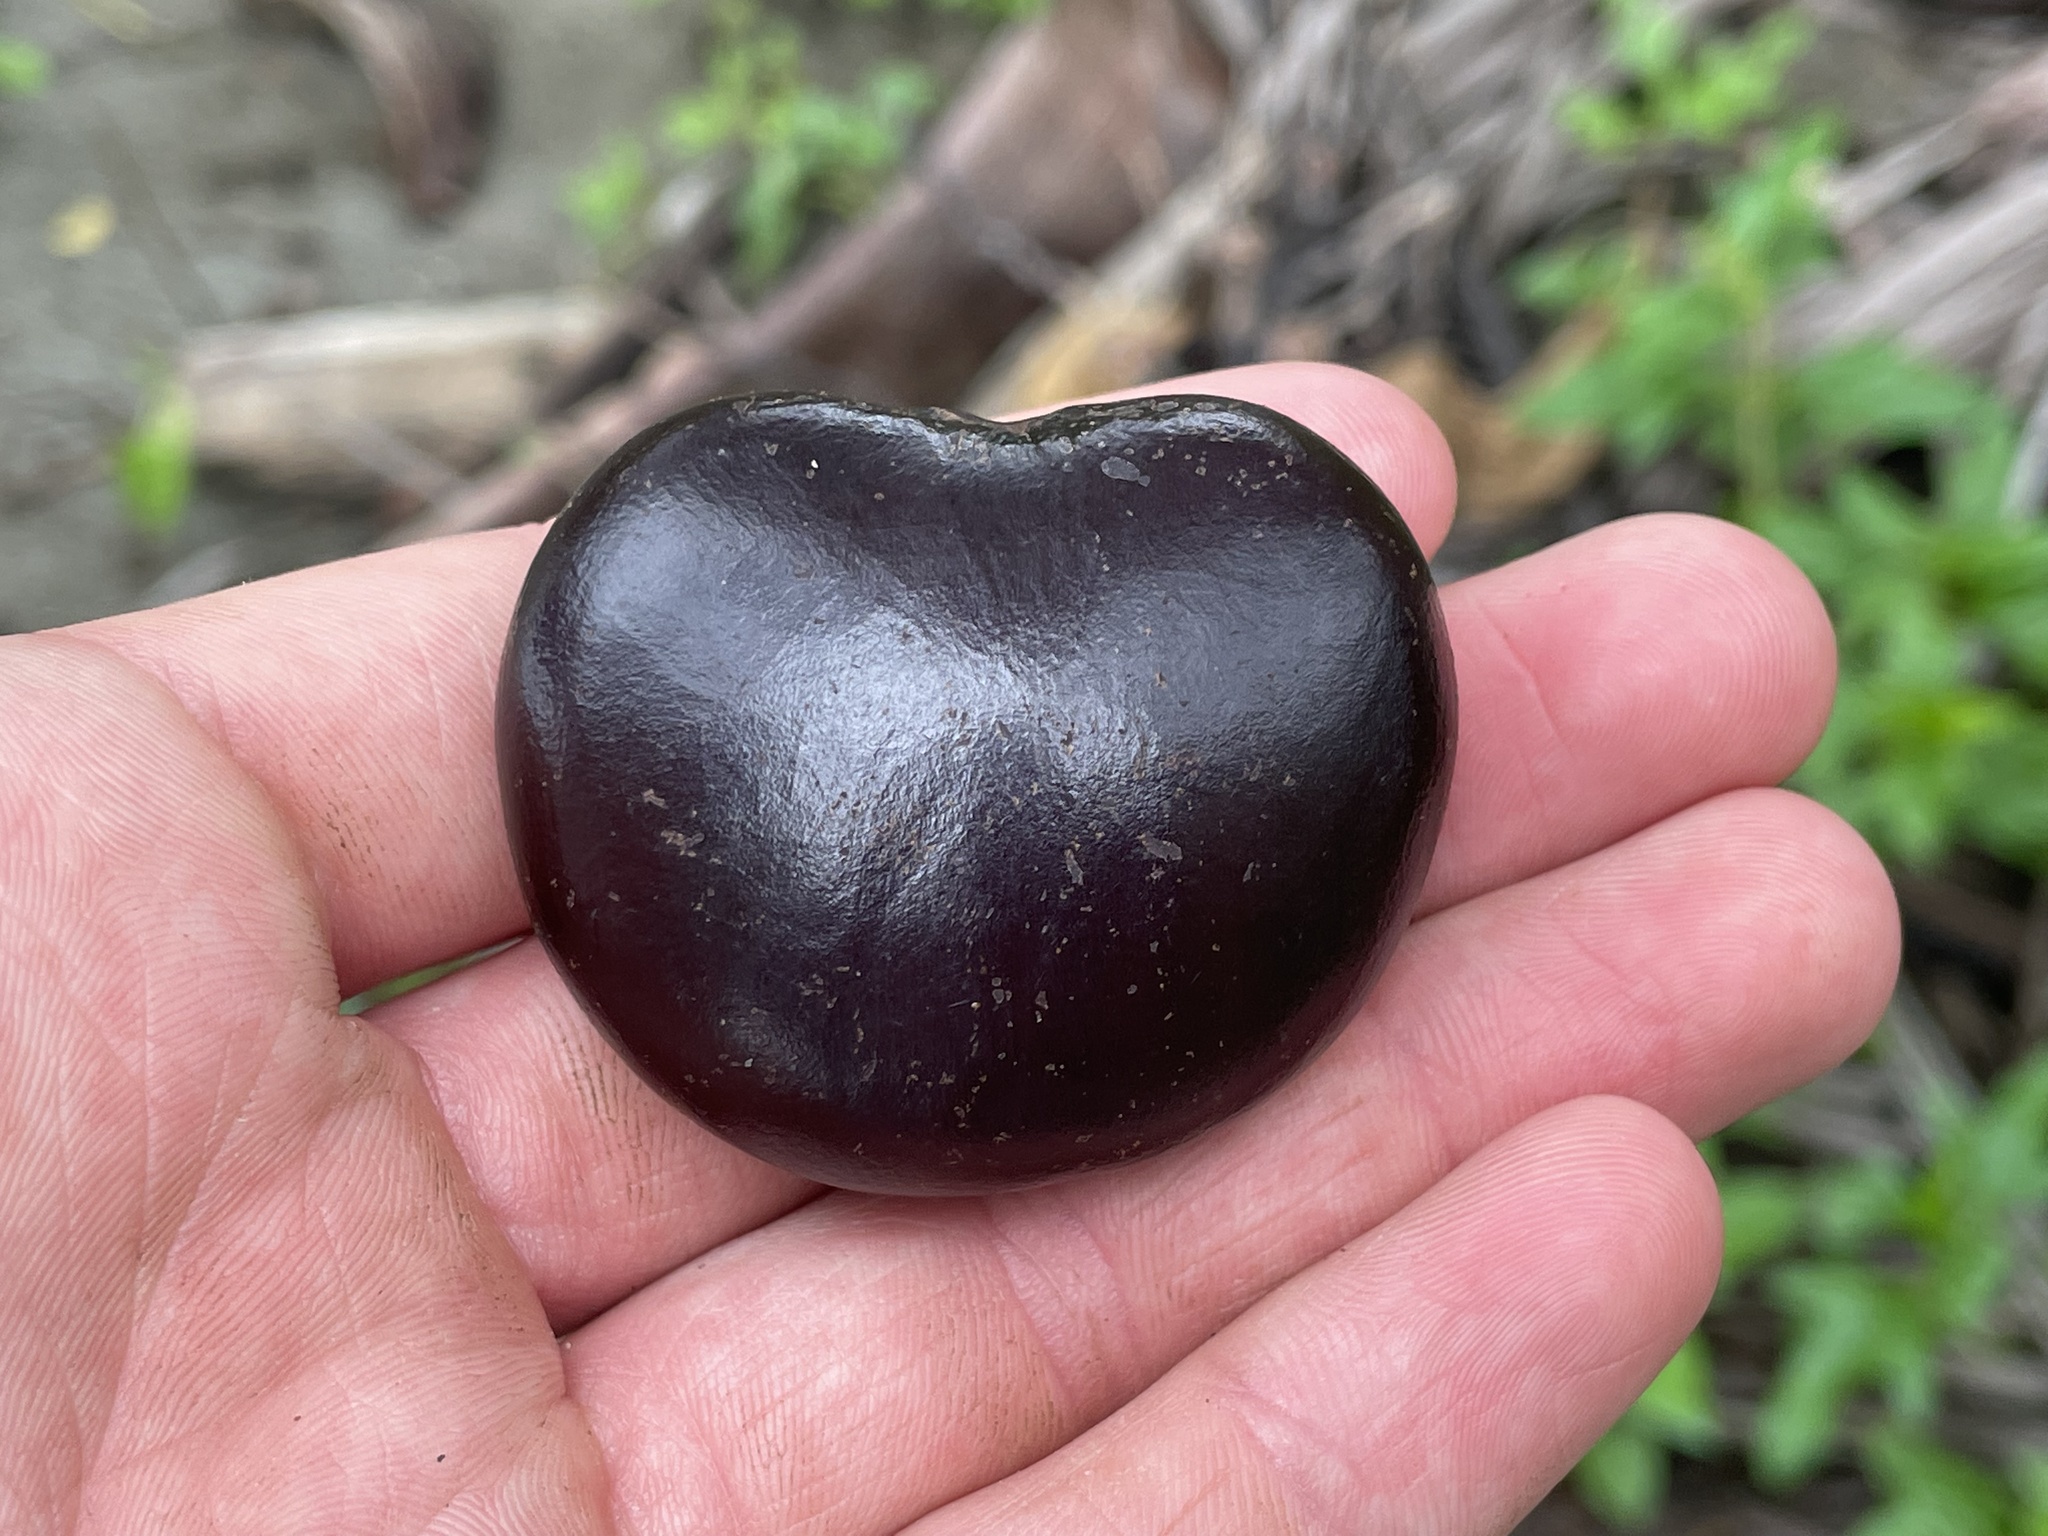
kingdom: Plantae
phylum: Tracheophyta
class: Magnoliopsida
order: Fabales
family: Fabaceae
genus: Entada
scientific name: Entada gigas
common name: Nicker-bean
